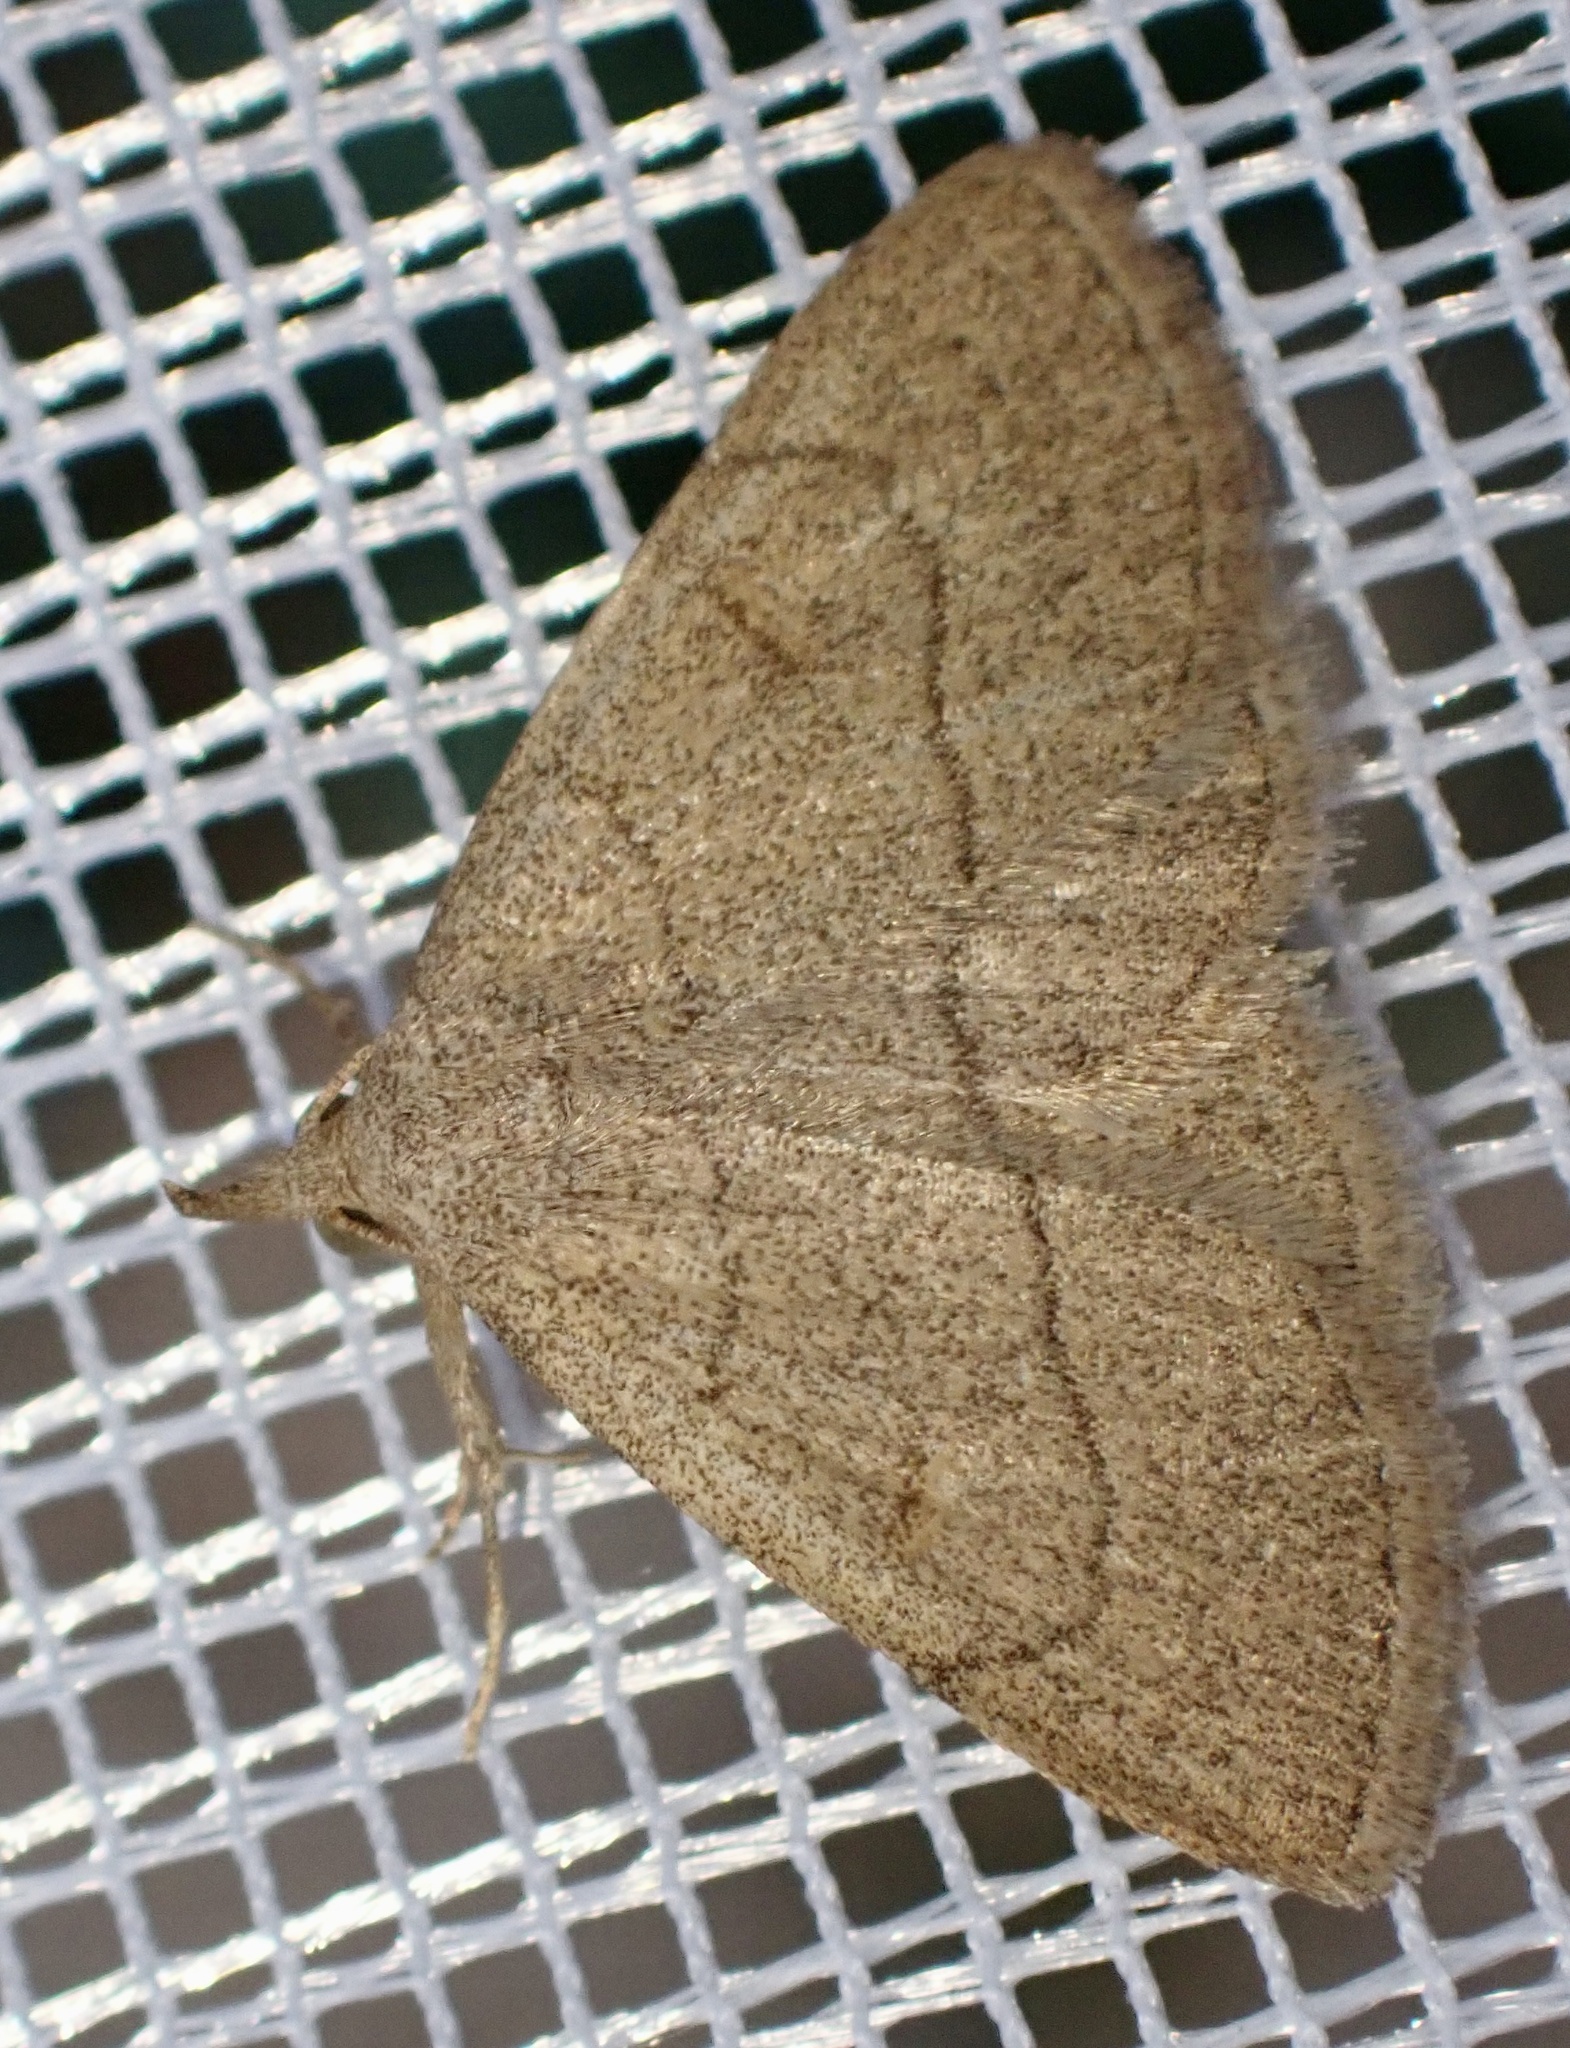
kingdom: Animalia
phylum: Arthropoda
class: Insecta
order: Lepidoptera
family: Erebidae
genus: Paracolax
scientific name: Paracolax tristalis
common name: Clay fan-foot
